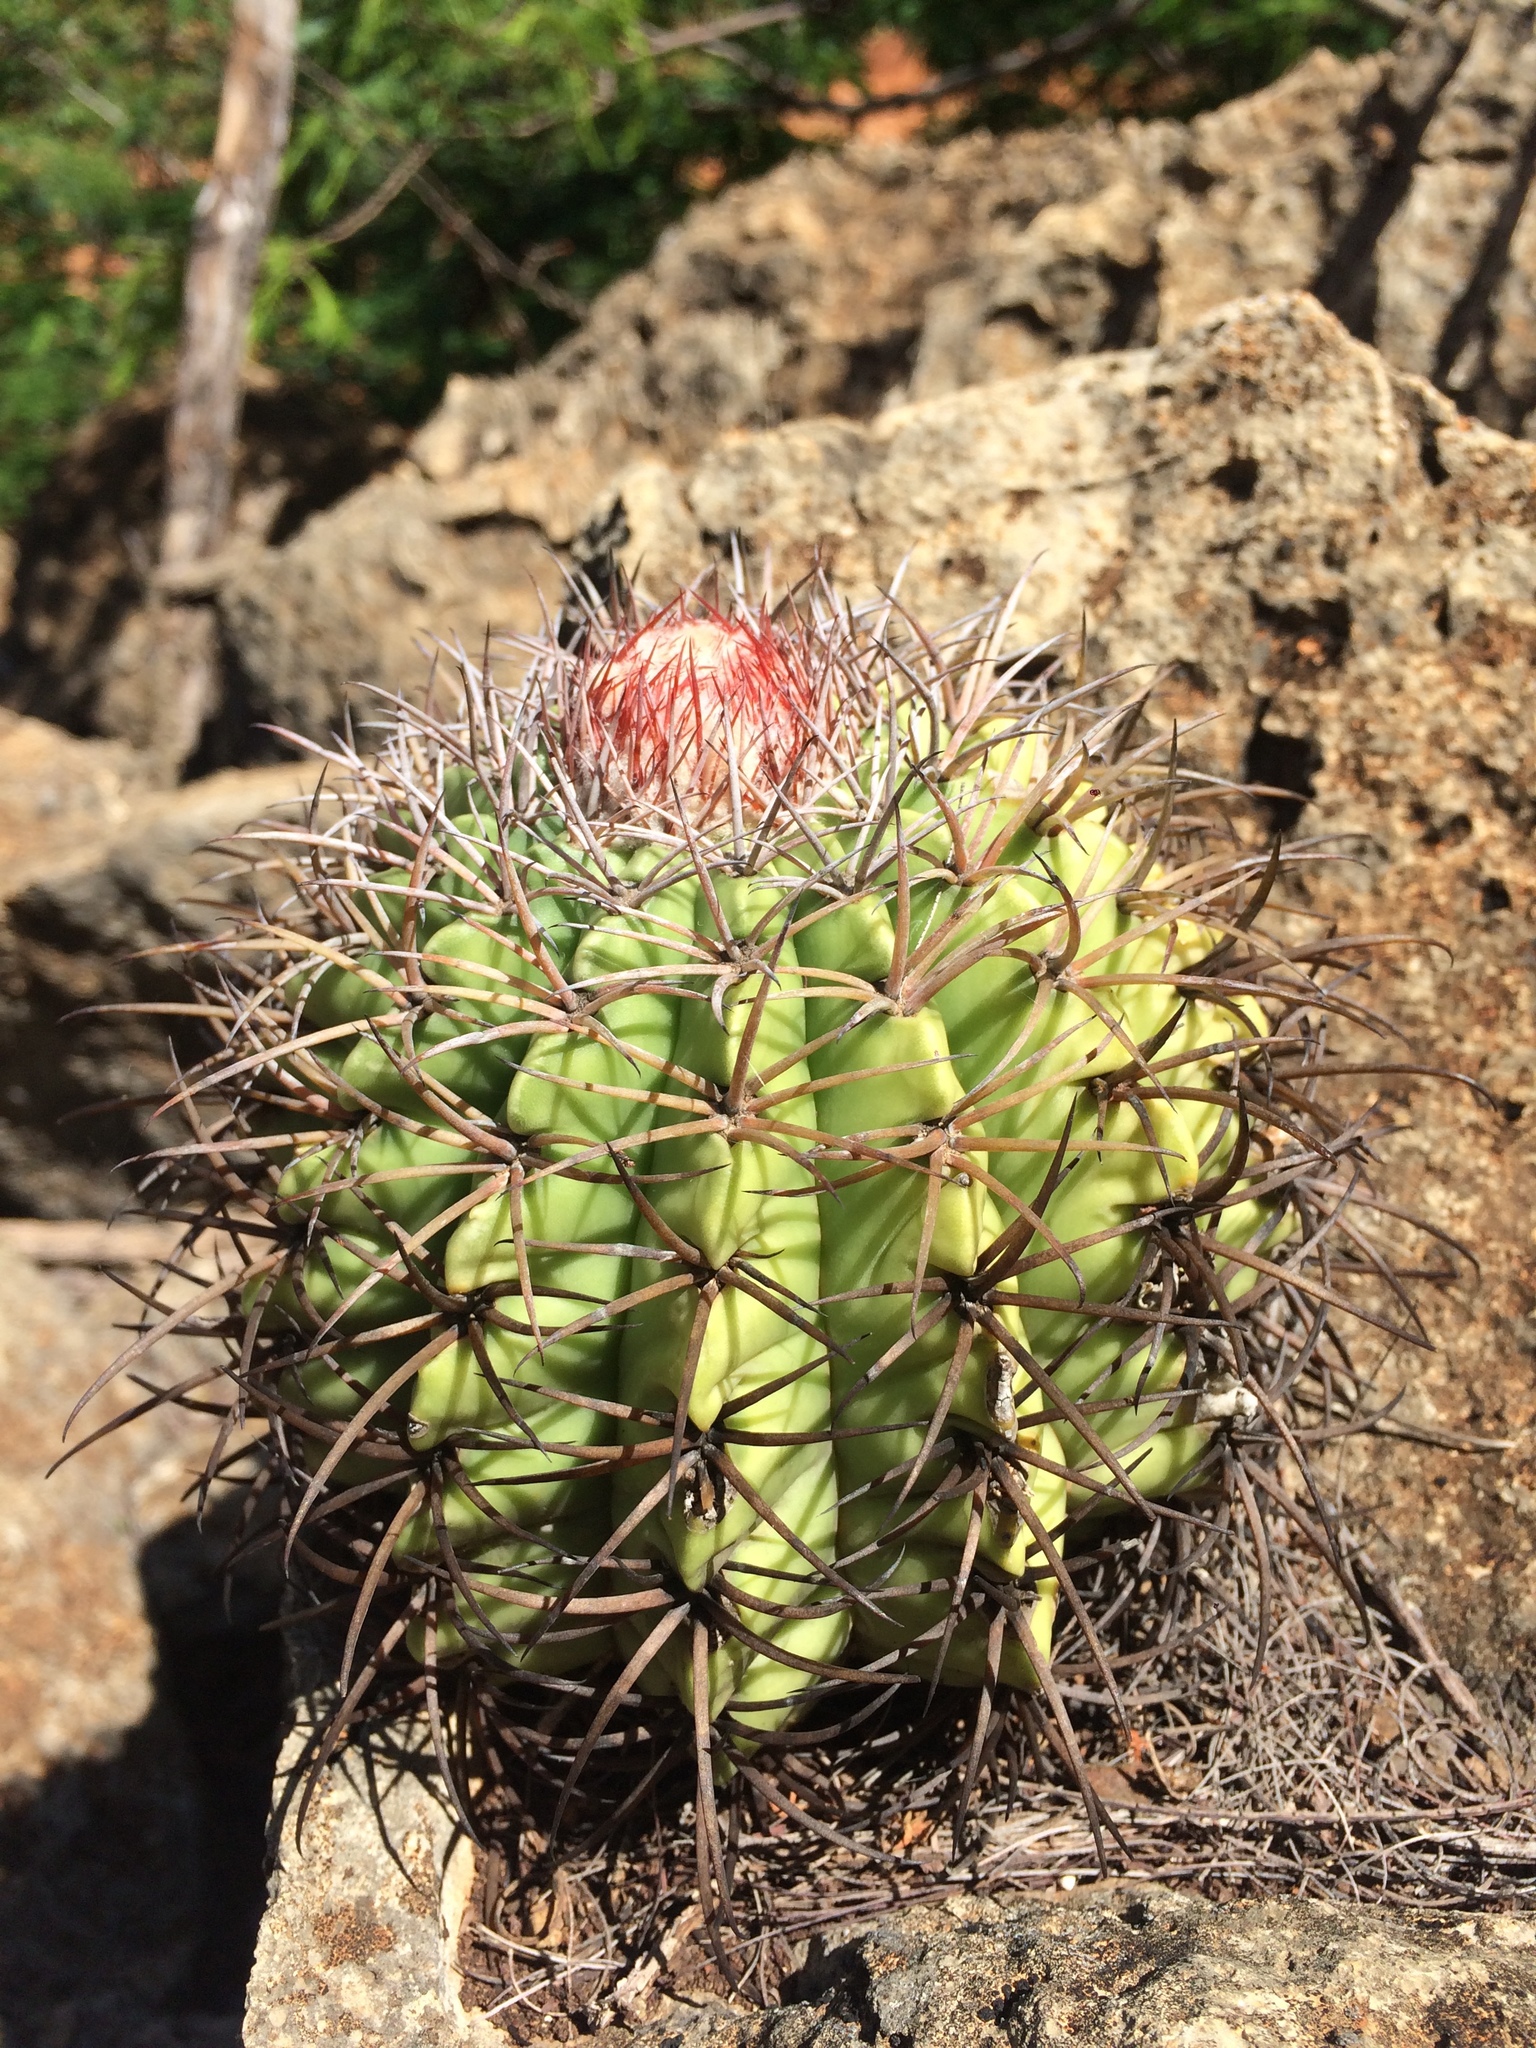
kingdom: Plantae
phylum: Tracheophyta
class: Magnoliopsida
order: Caryophyllales
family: Cactaceae
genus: Melocactus
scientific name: Melocactus pachyacanthus
